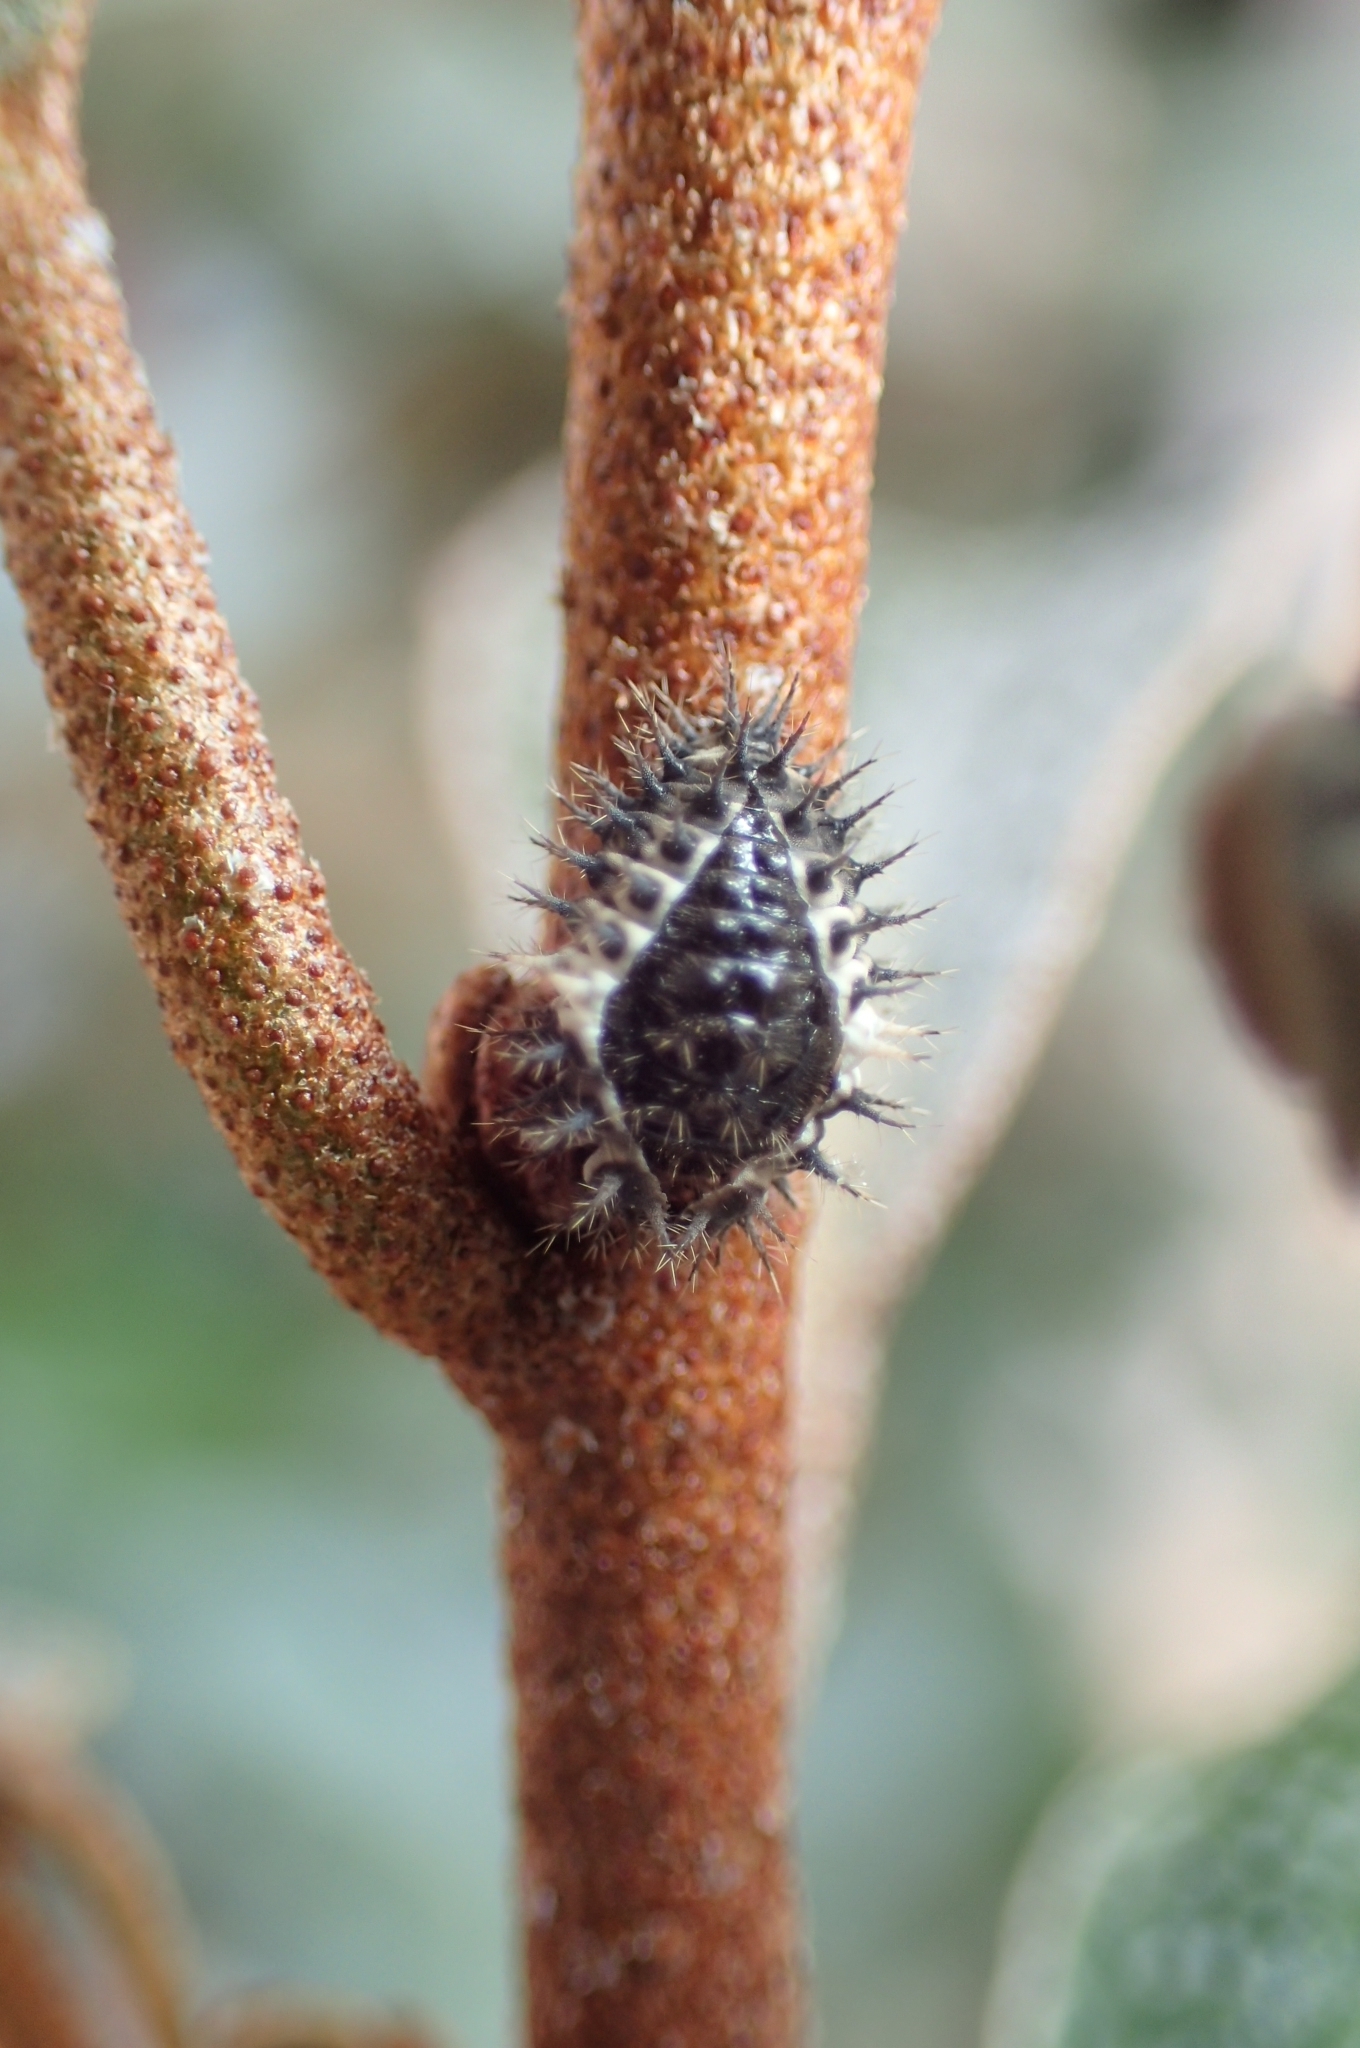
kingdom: Animalia
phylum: Arthropoda
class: Insecta
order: Coleoptera
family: Coccinellidae
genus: Chilocorus
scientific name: Chilocorus bipustulatus
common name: Heather ladybird
